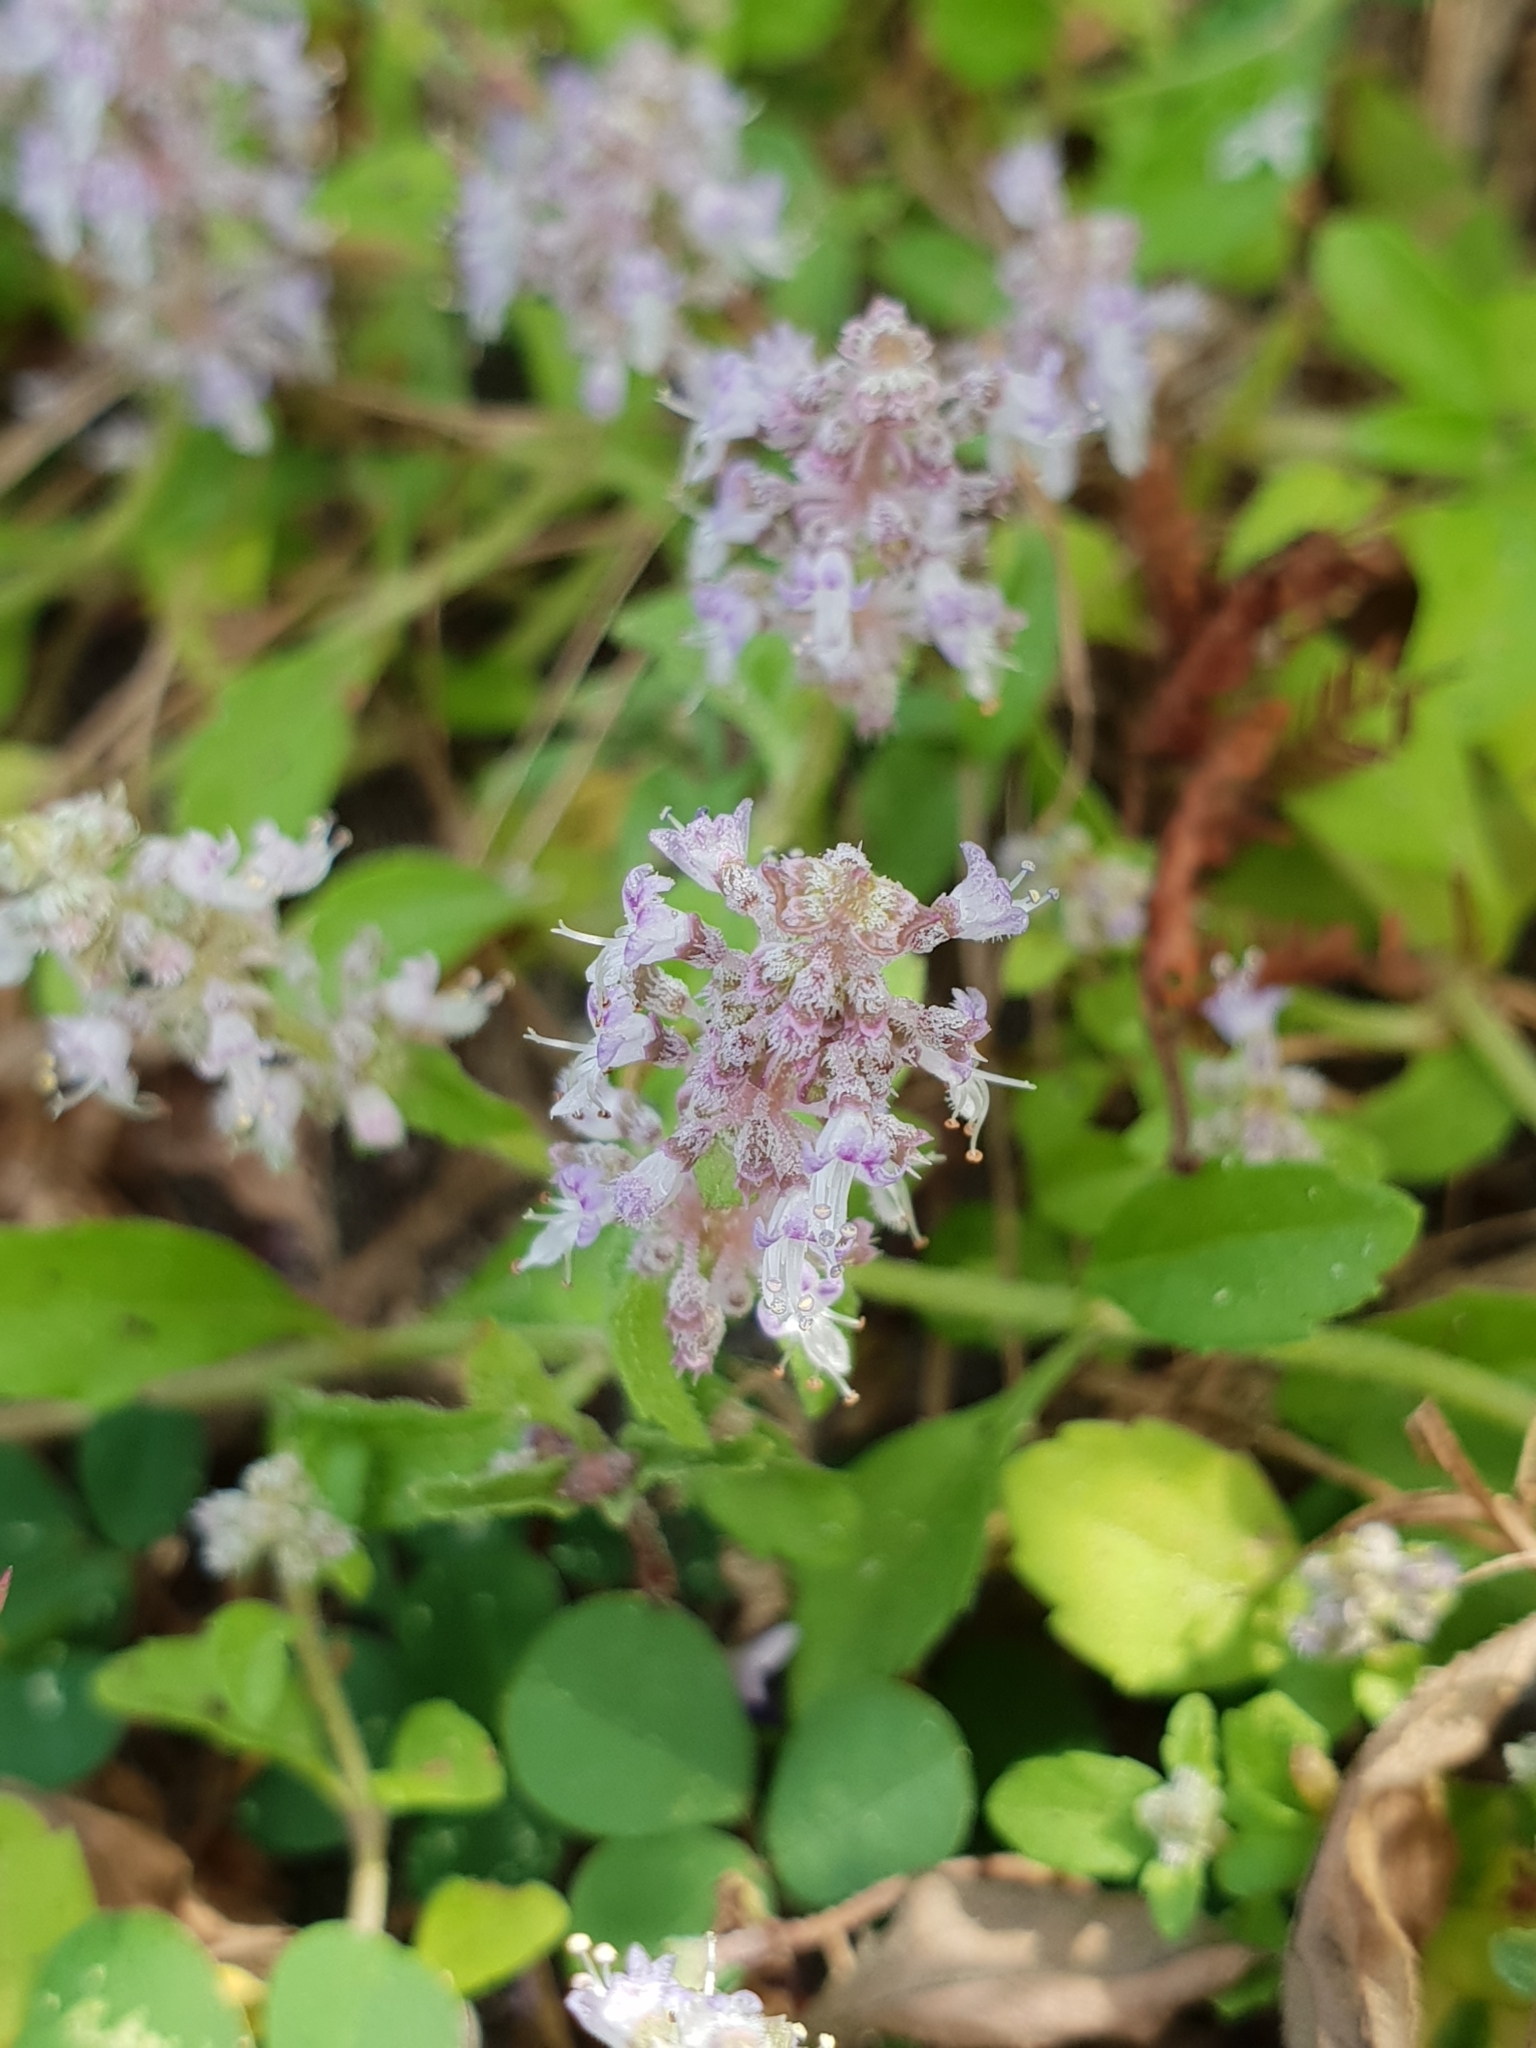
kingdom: Plantae
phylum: Tracheophyta
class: Magnoliopsida
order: Lamiales
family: Lamiaceae
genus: Platostoma
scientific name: Platostoma menthoides
